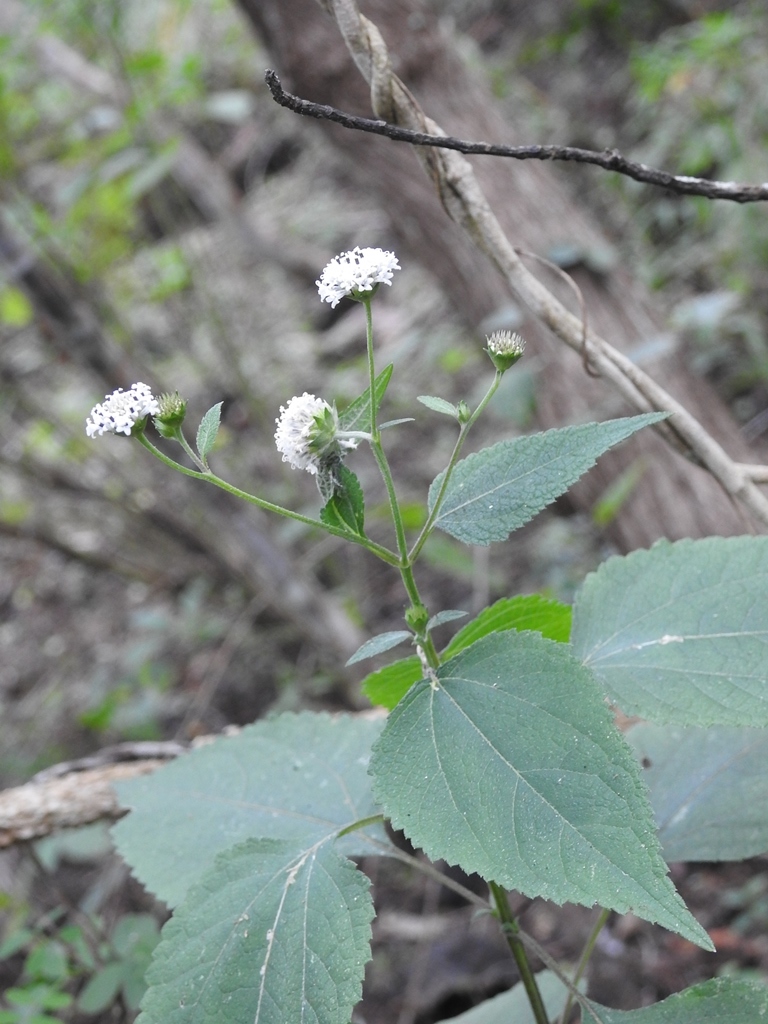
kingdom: Plantae
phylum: Tracheophyta
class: Magnoliopsida
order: Asterales
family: Asteraceae
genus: Melanthera
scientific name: Melanthera nivea
